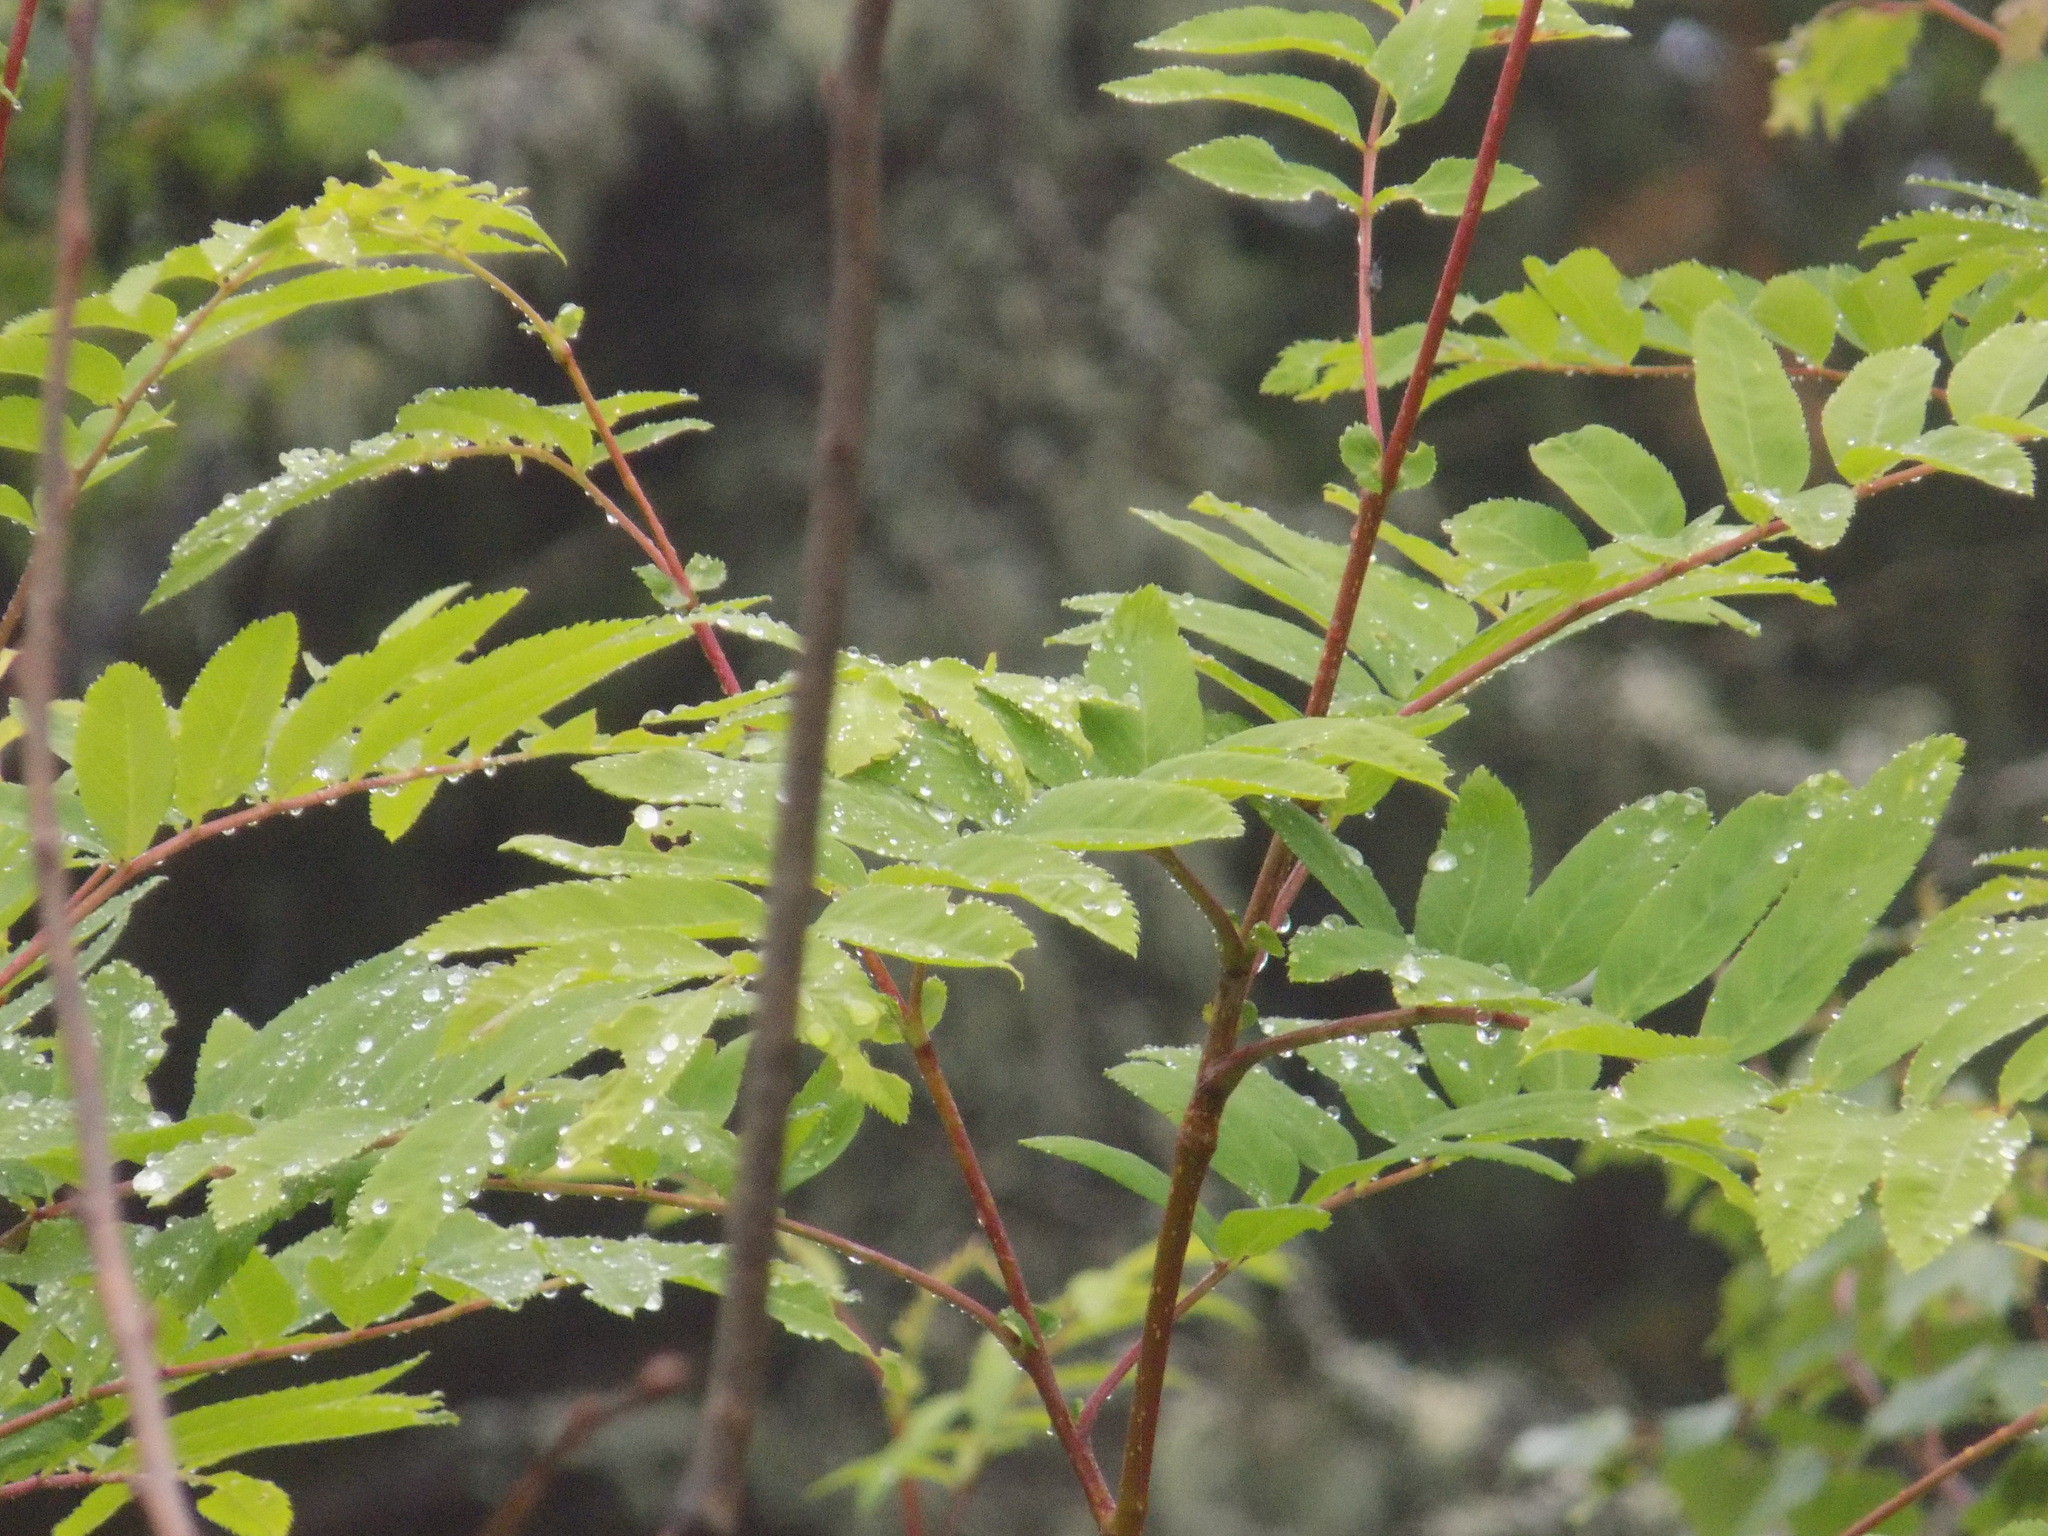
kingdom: Plantae
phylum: Tracheophyta
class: Magnoliopsida
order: Rosales
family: Rosaceae
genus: Sorbus
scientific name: Sorbus aucuparia
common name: Rowan
